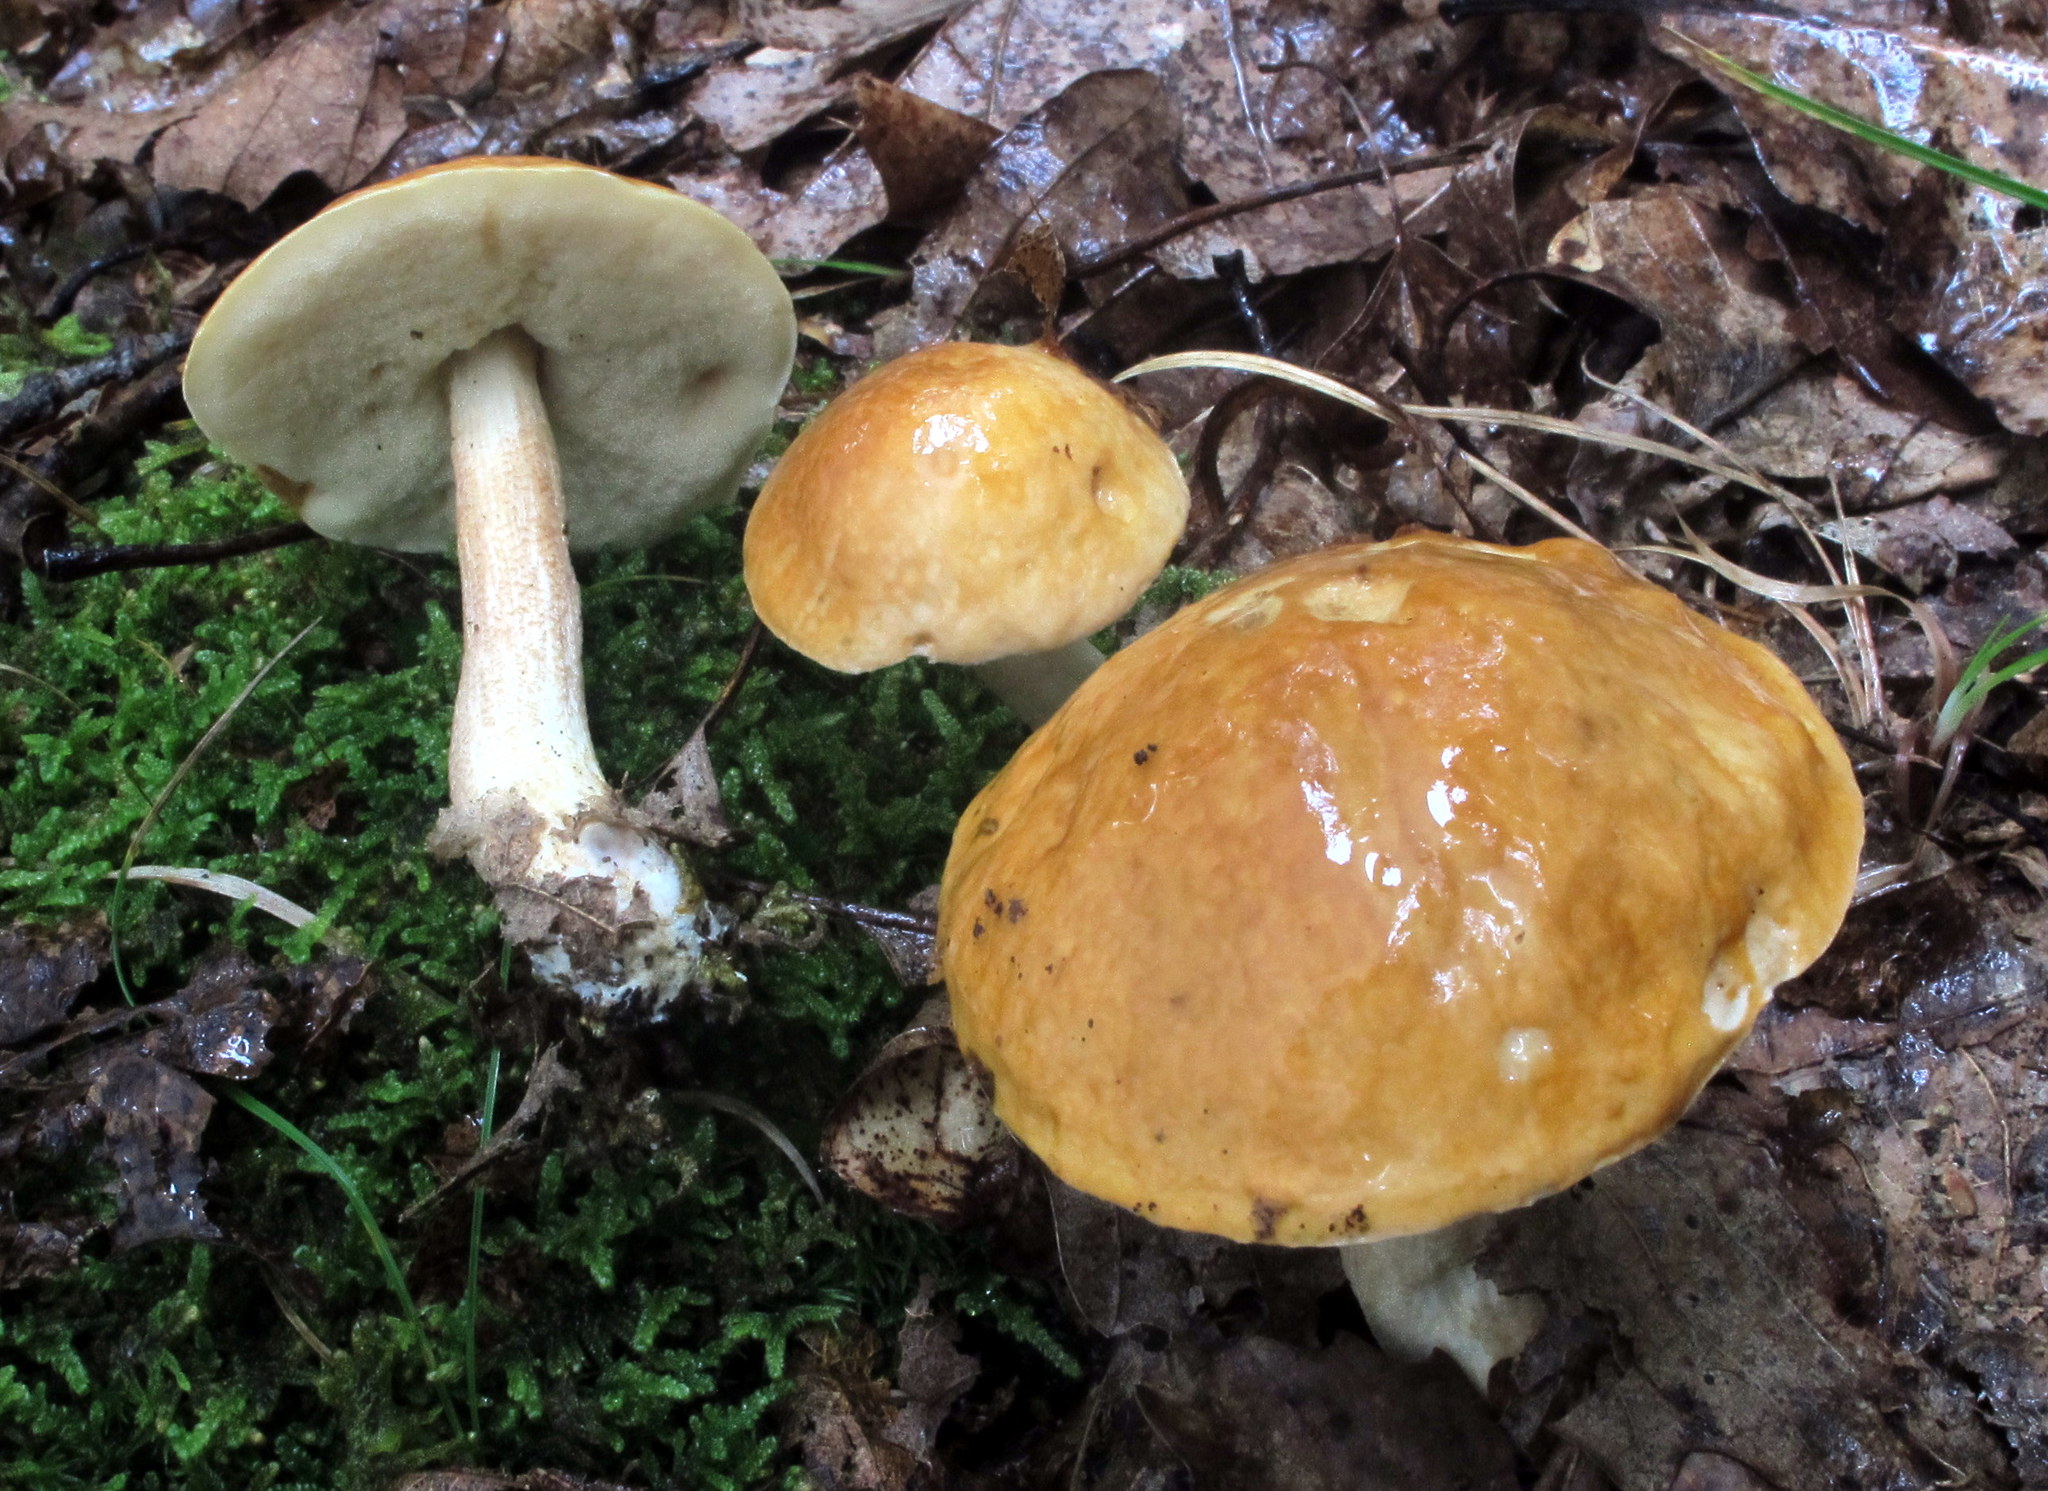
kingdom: Fungi
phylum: Basidiomycota
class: Agaricomycetes
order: Boletales
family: Boletaceae
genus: Leccinum
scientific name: Leccinum longicurvipes
